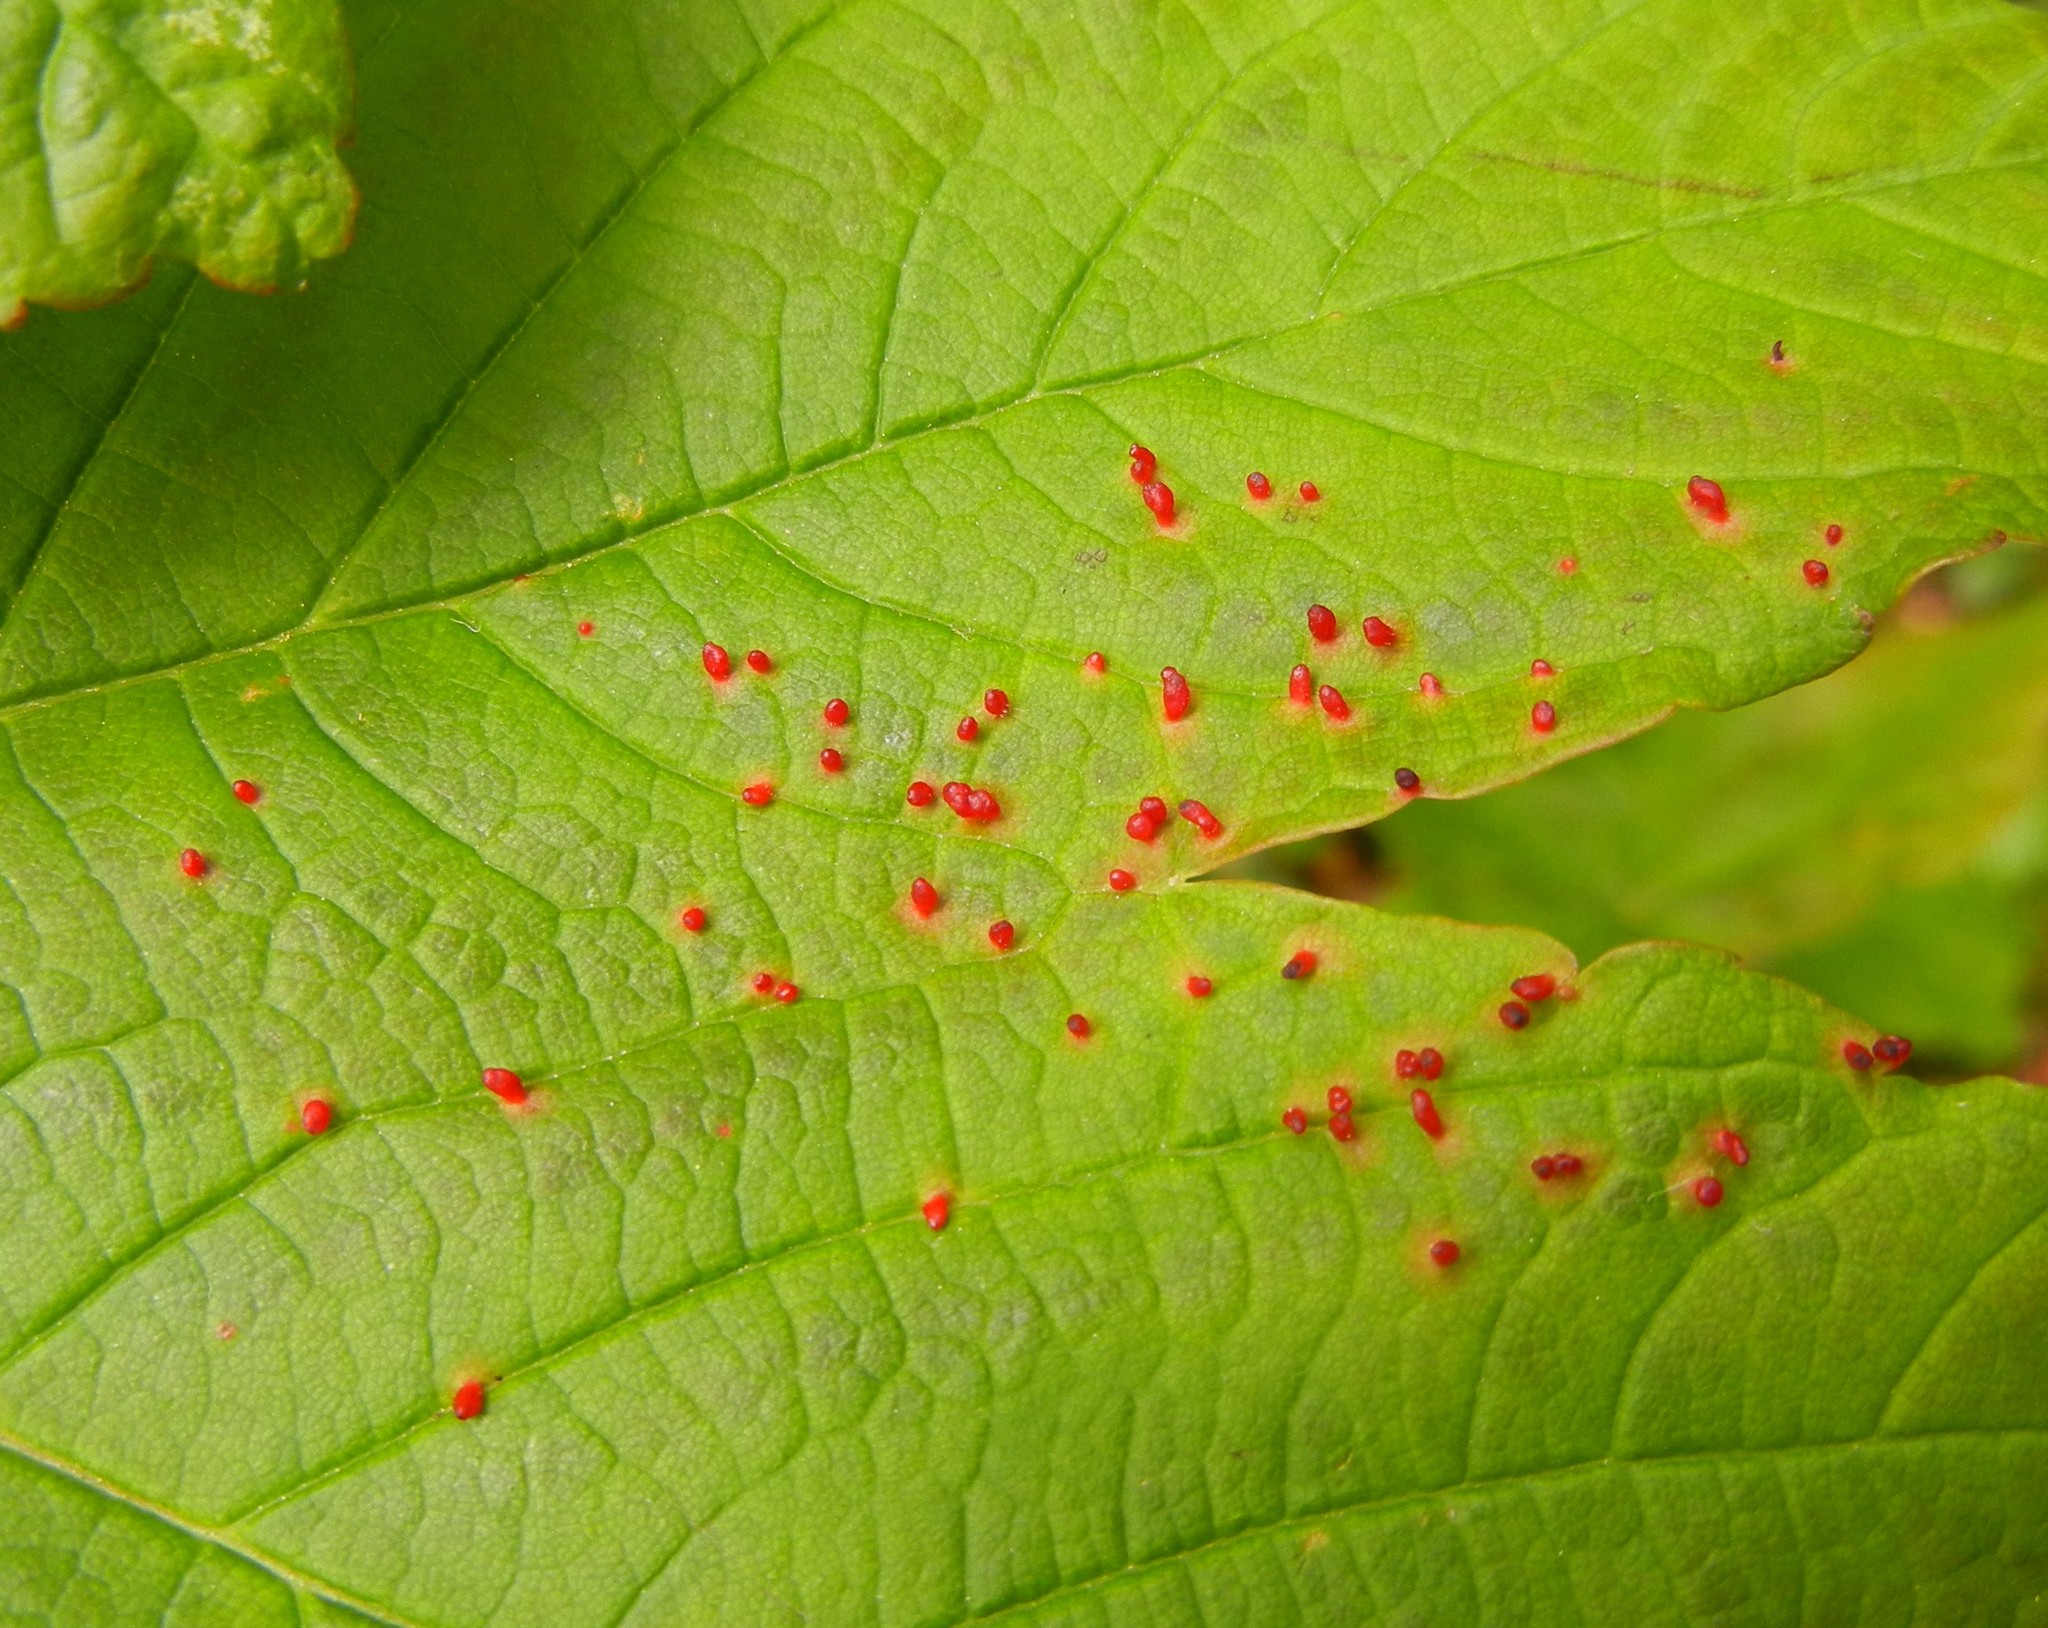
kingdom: Animalia
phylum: Arthropoda
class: Arachnida
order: Trombidiformes
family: Eriophyidae
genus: Aceria
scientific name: Aceria cephaloneus
